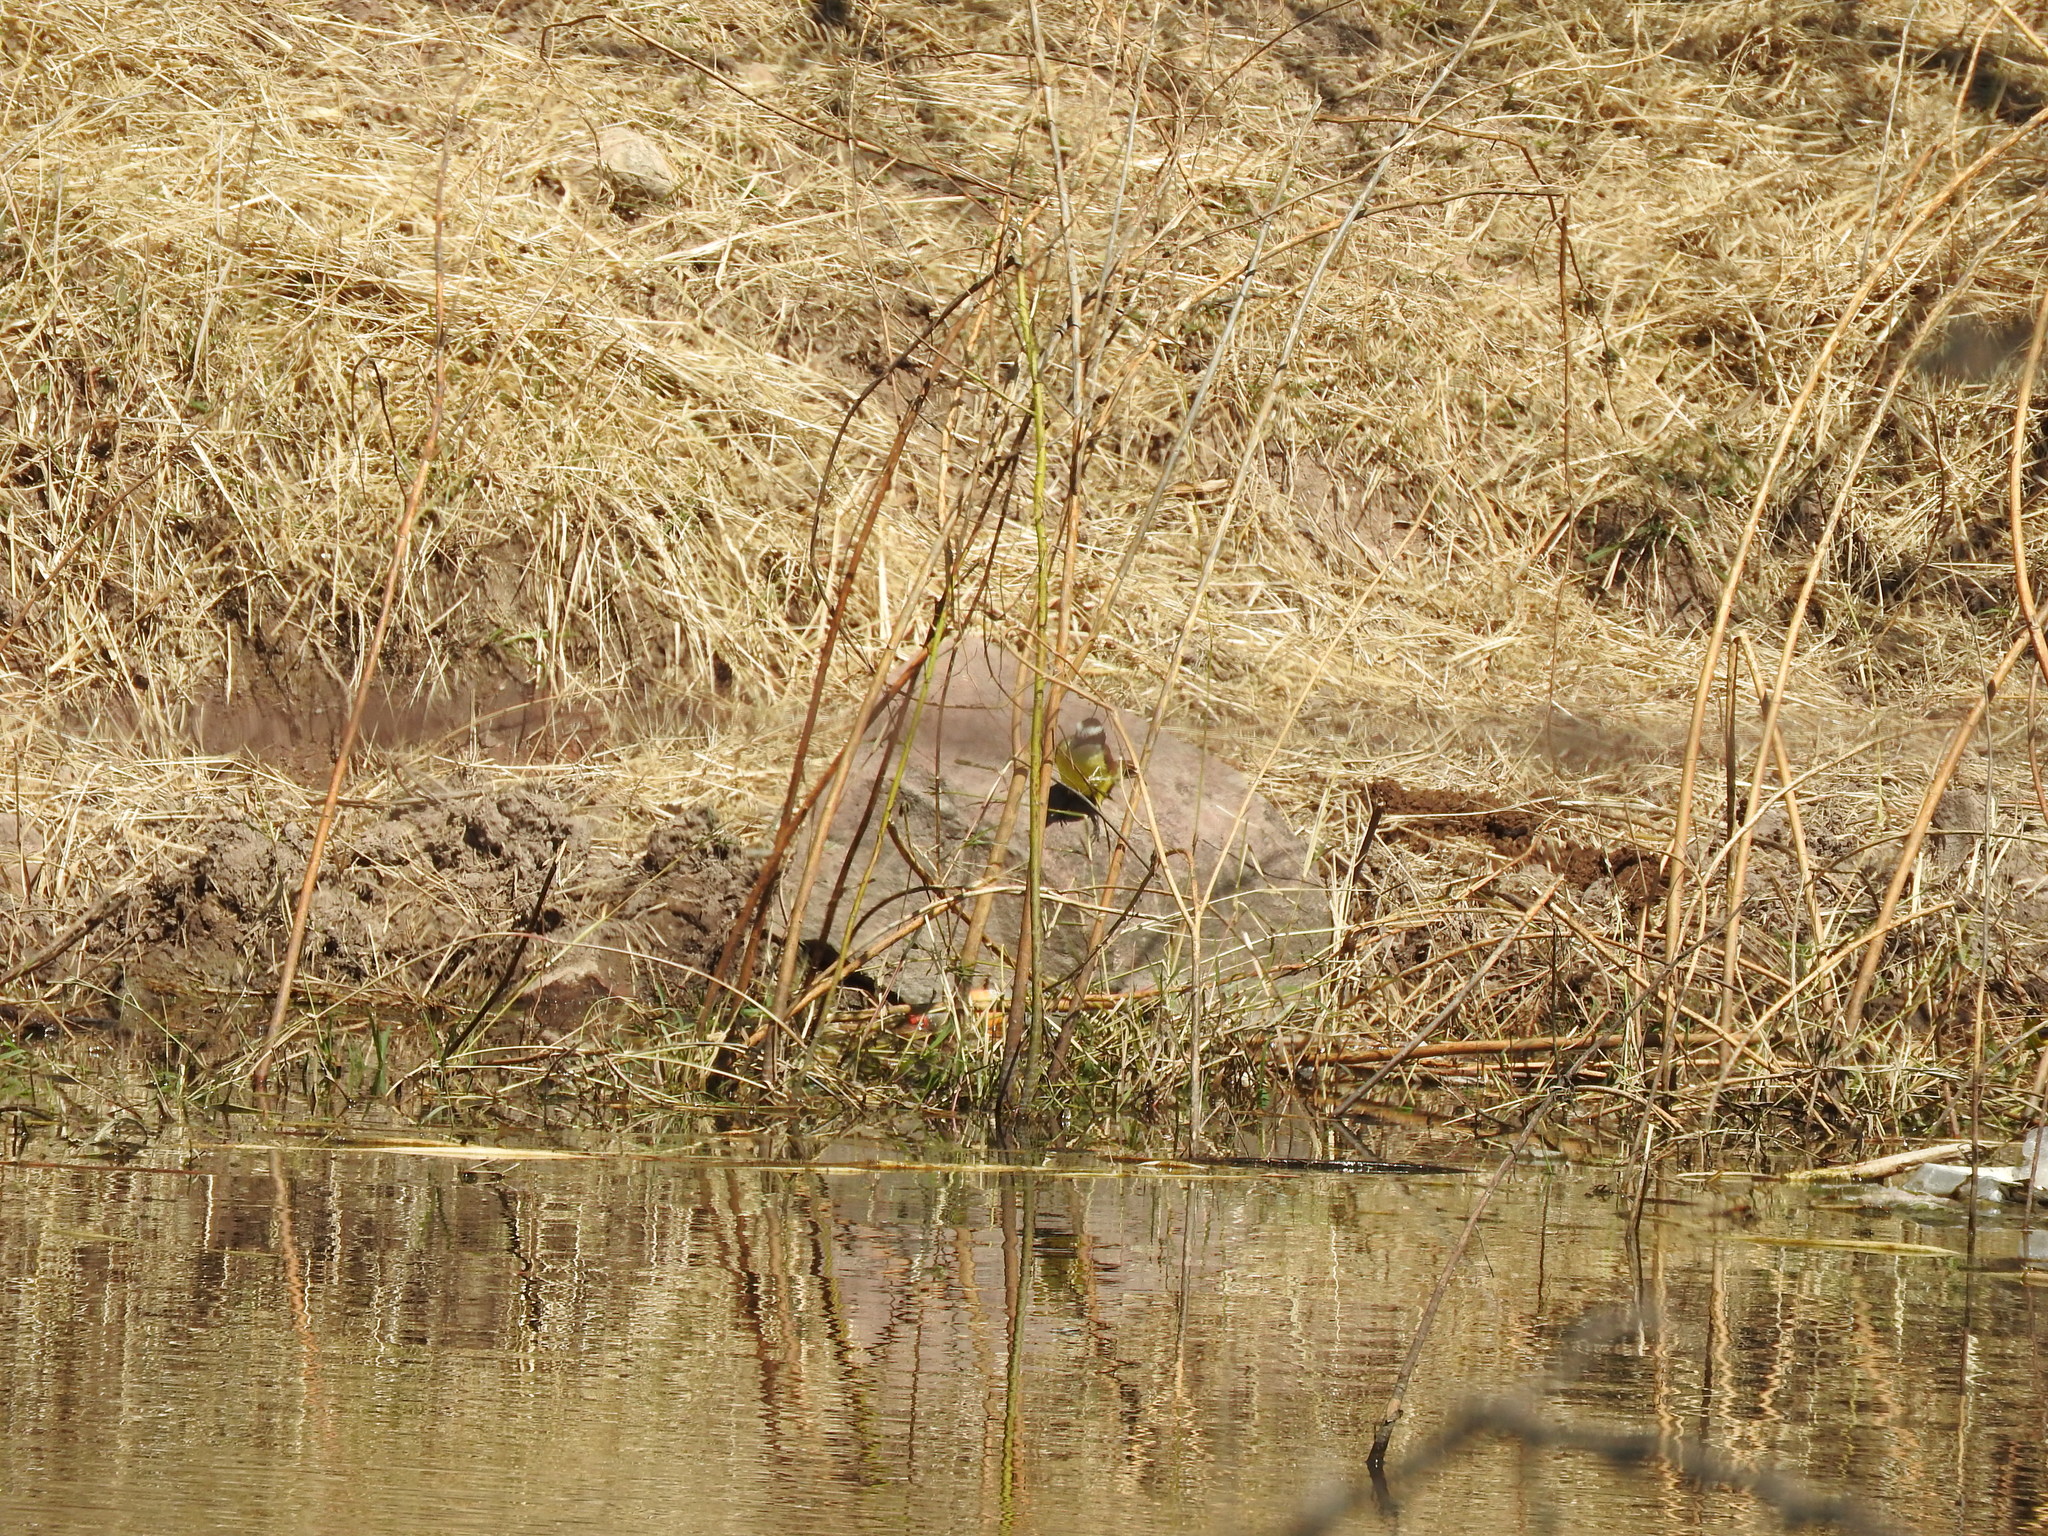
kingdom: Animalia
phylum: Chordata
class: Aves
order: Passeriformes
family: Tyrannidae
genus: Pitangus
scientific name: Pitangus sulphuratus
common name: Great kiskadee
